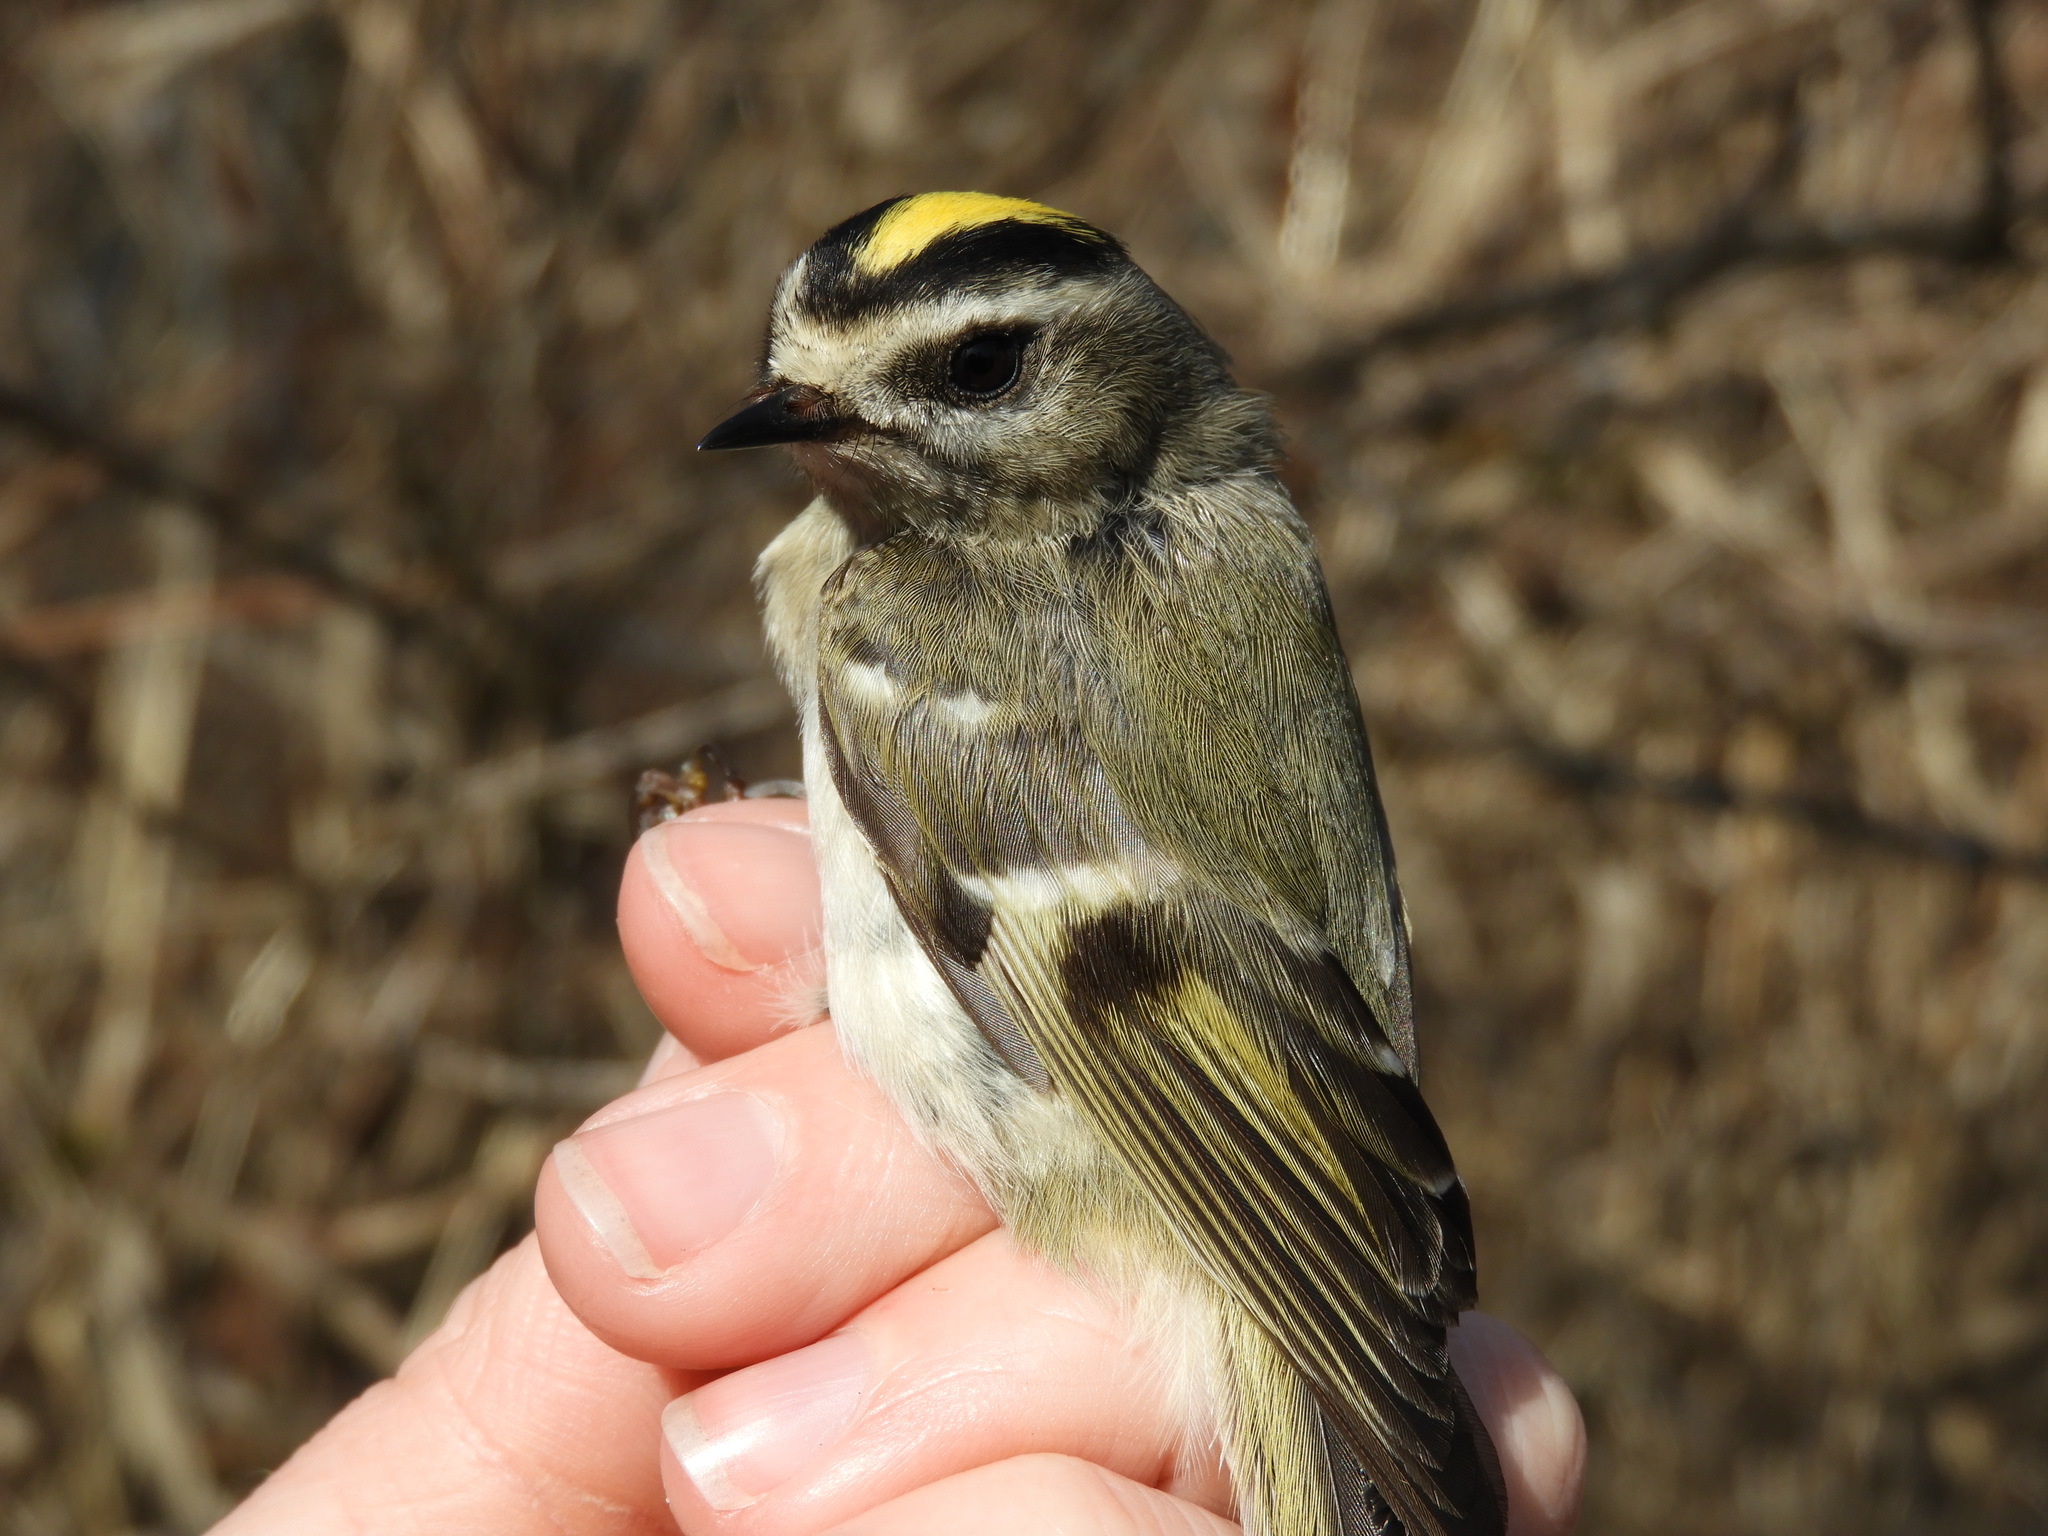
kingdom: Animalia
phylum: Chordata
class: Aves
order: Passeriformes
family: Regulidae
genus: Regulus
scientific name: Regulus satrapa
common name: Golden-crowned kinglet
